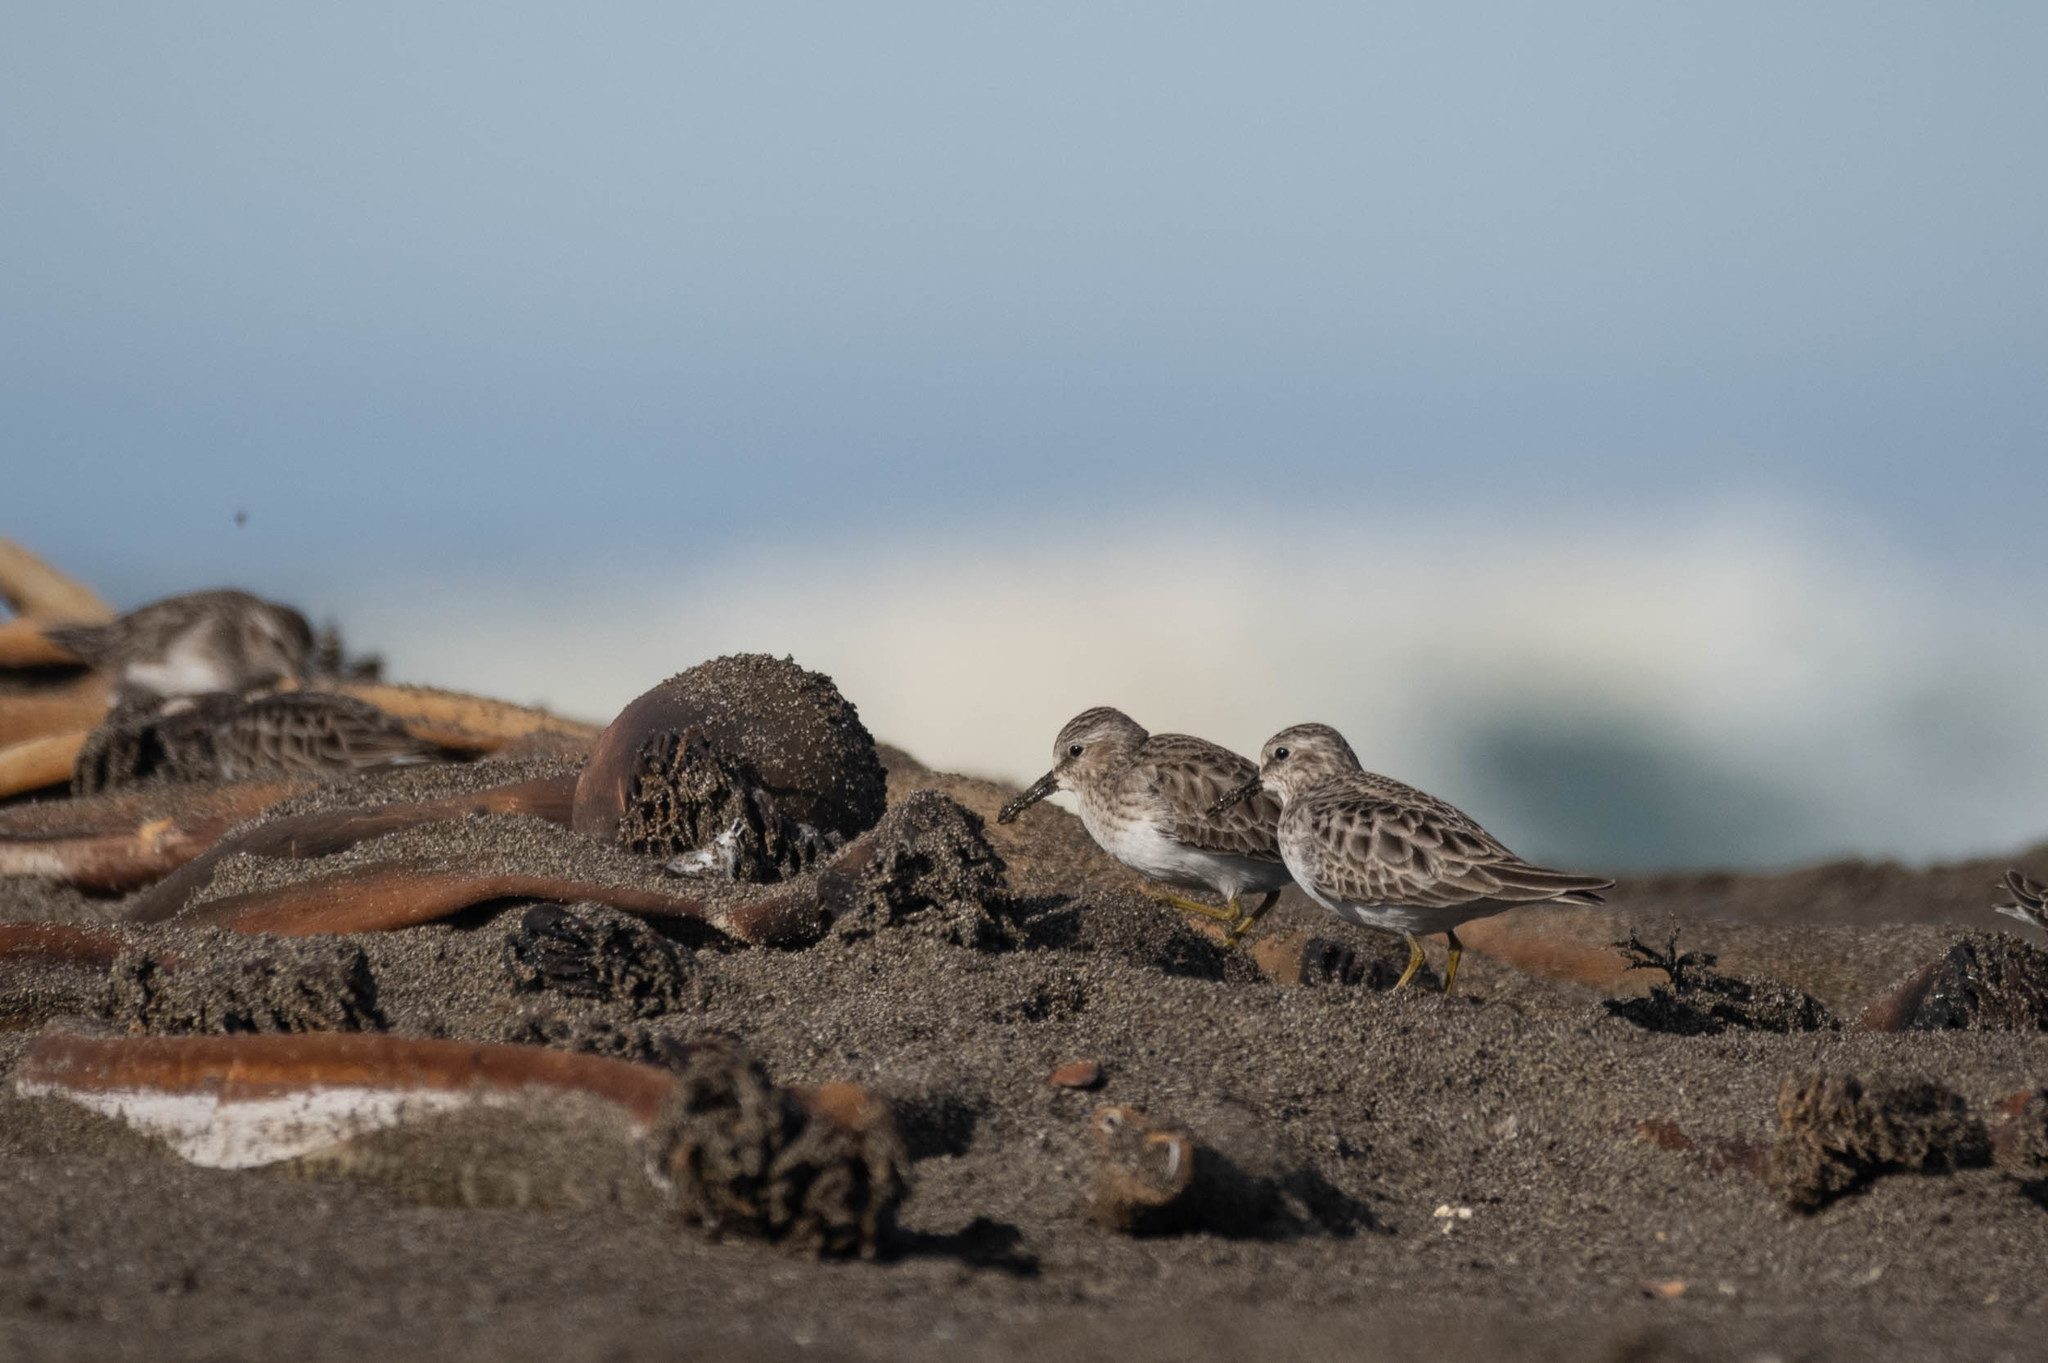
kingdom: Animalia
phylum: Chordata
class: Aves
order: Charadriiformes
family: Scolopacidae
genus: Calidris
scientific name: Calidris minutilla
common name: Least sandpiper
